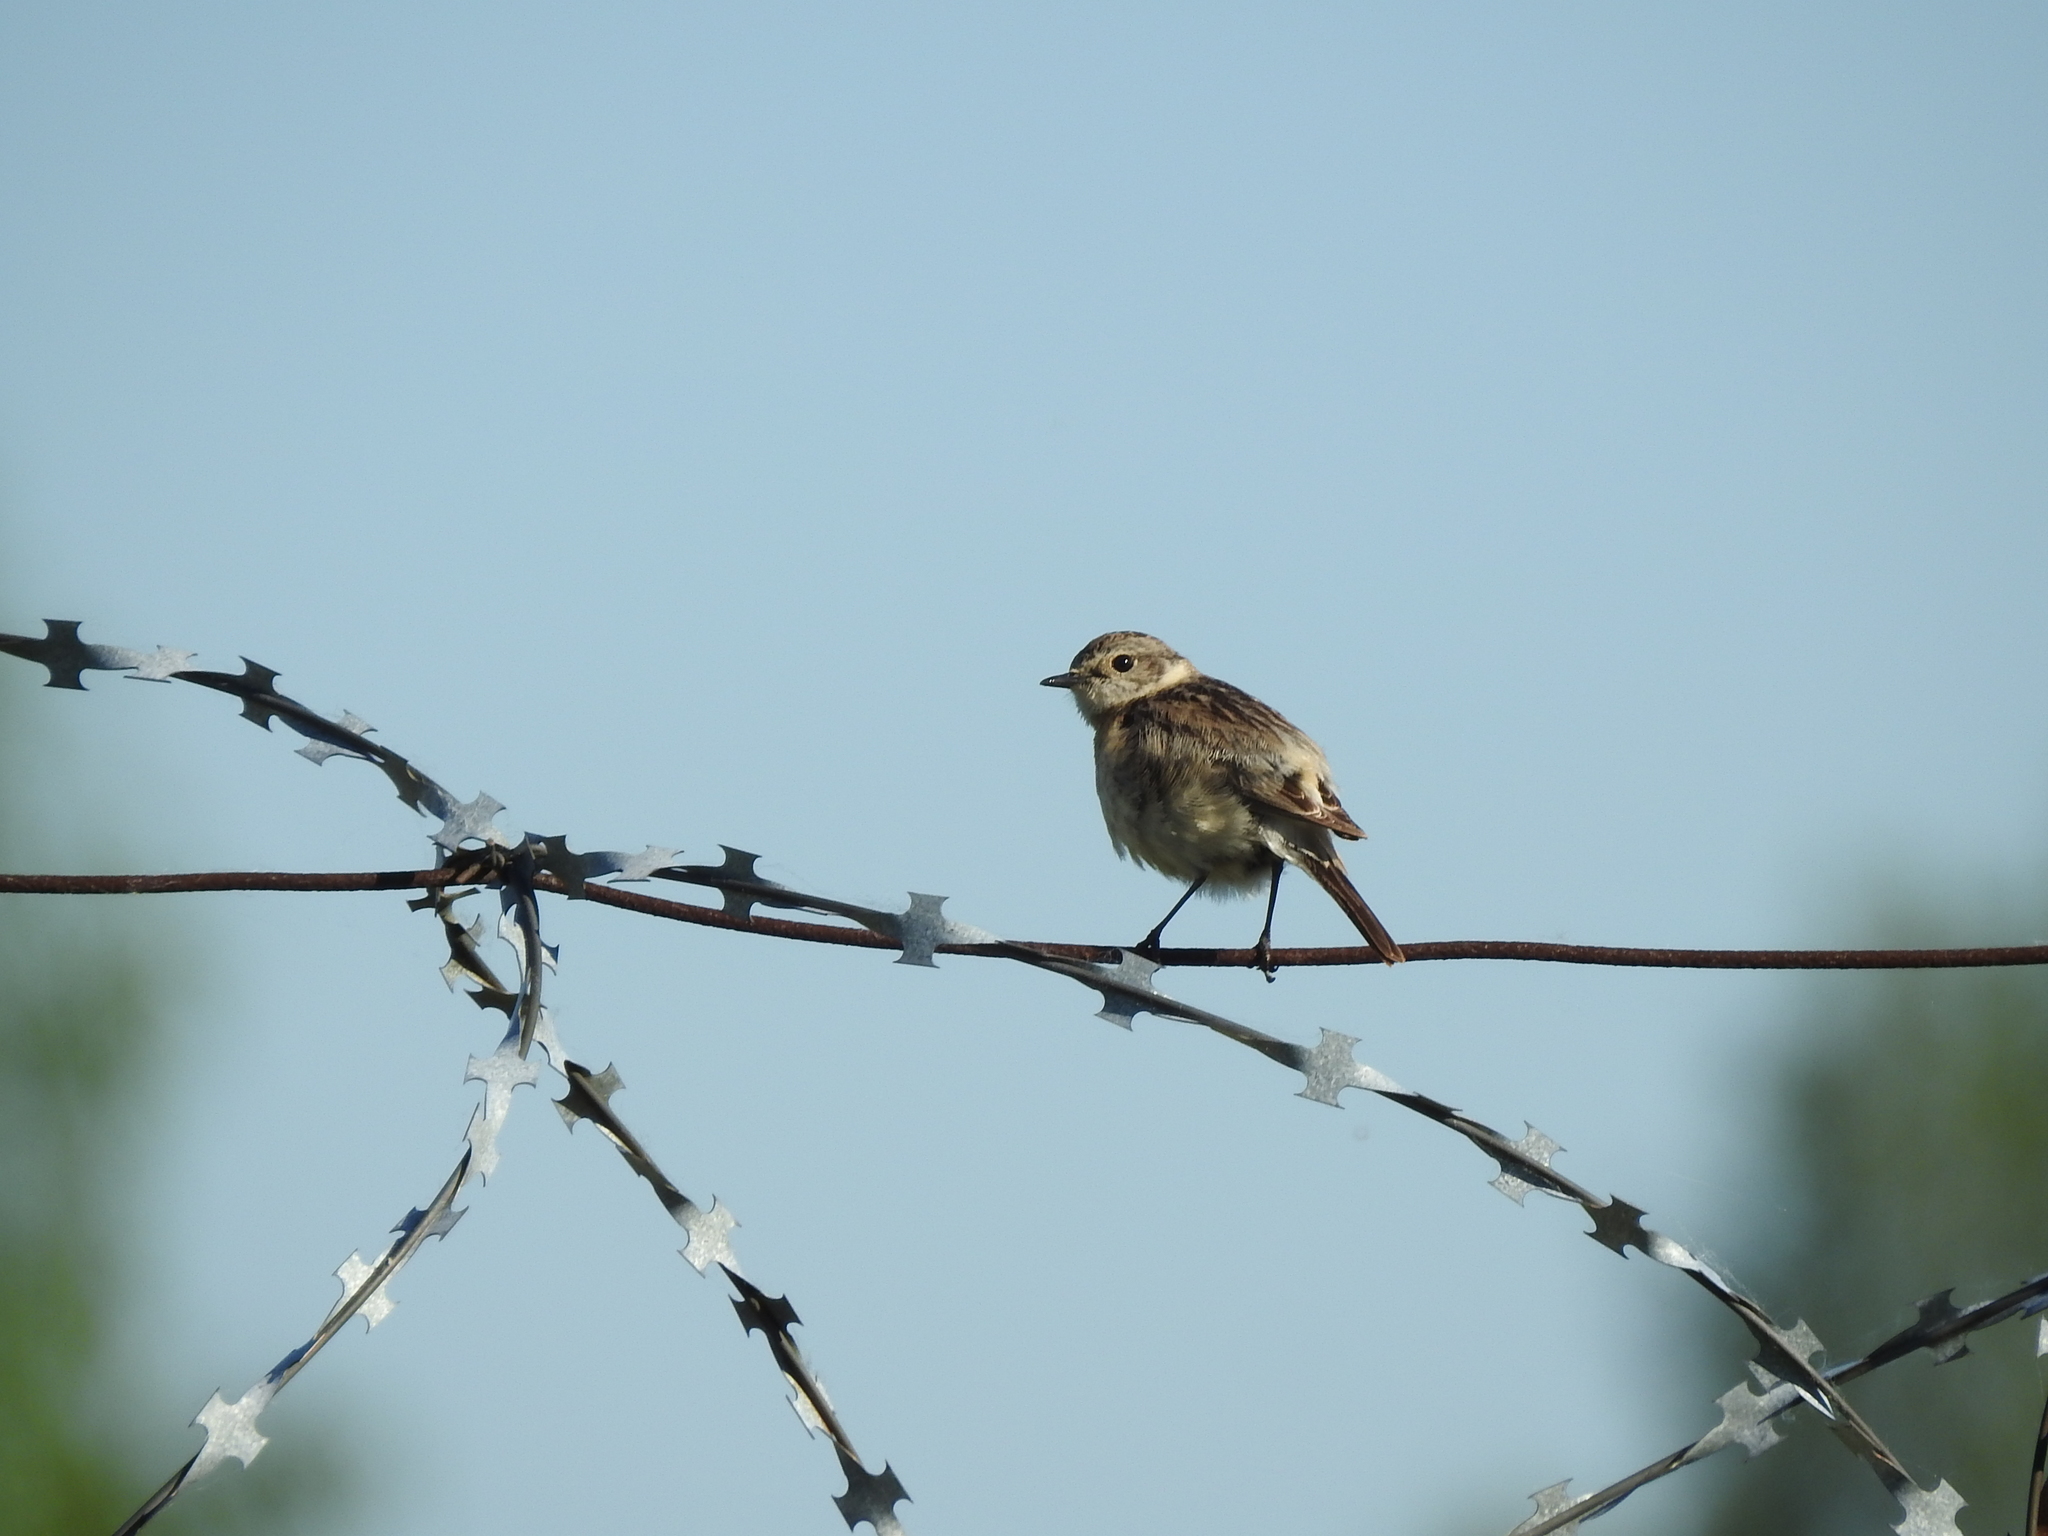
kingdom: Animalia
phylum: Chordata
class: Aves
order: Passeriformes
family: Muscicapidae
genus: Saxicola
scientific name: Saxicola maurus
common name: Siberian stonechat
